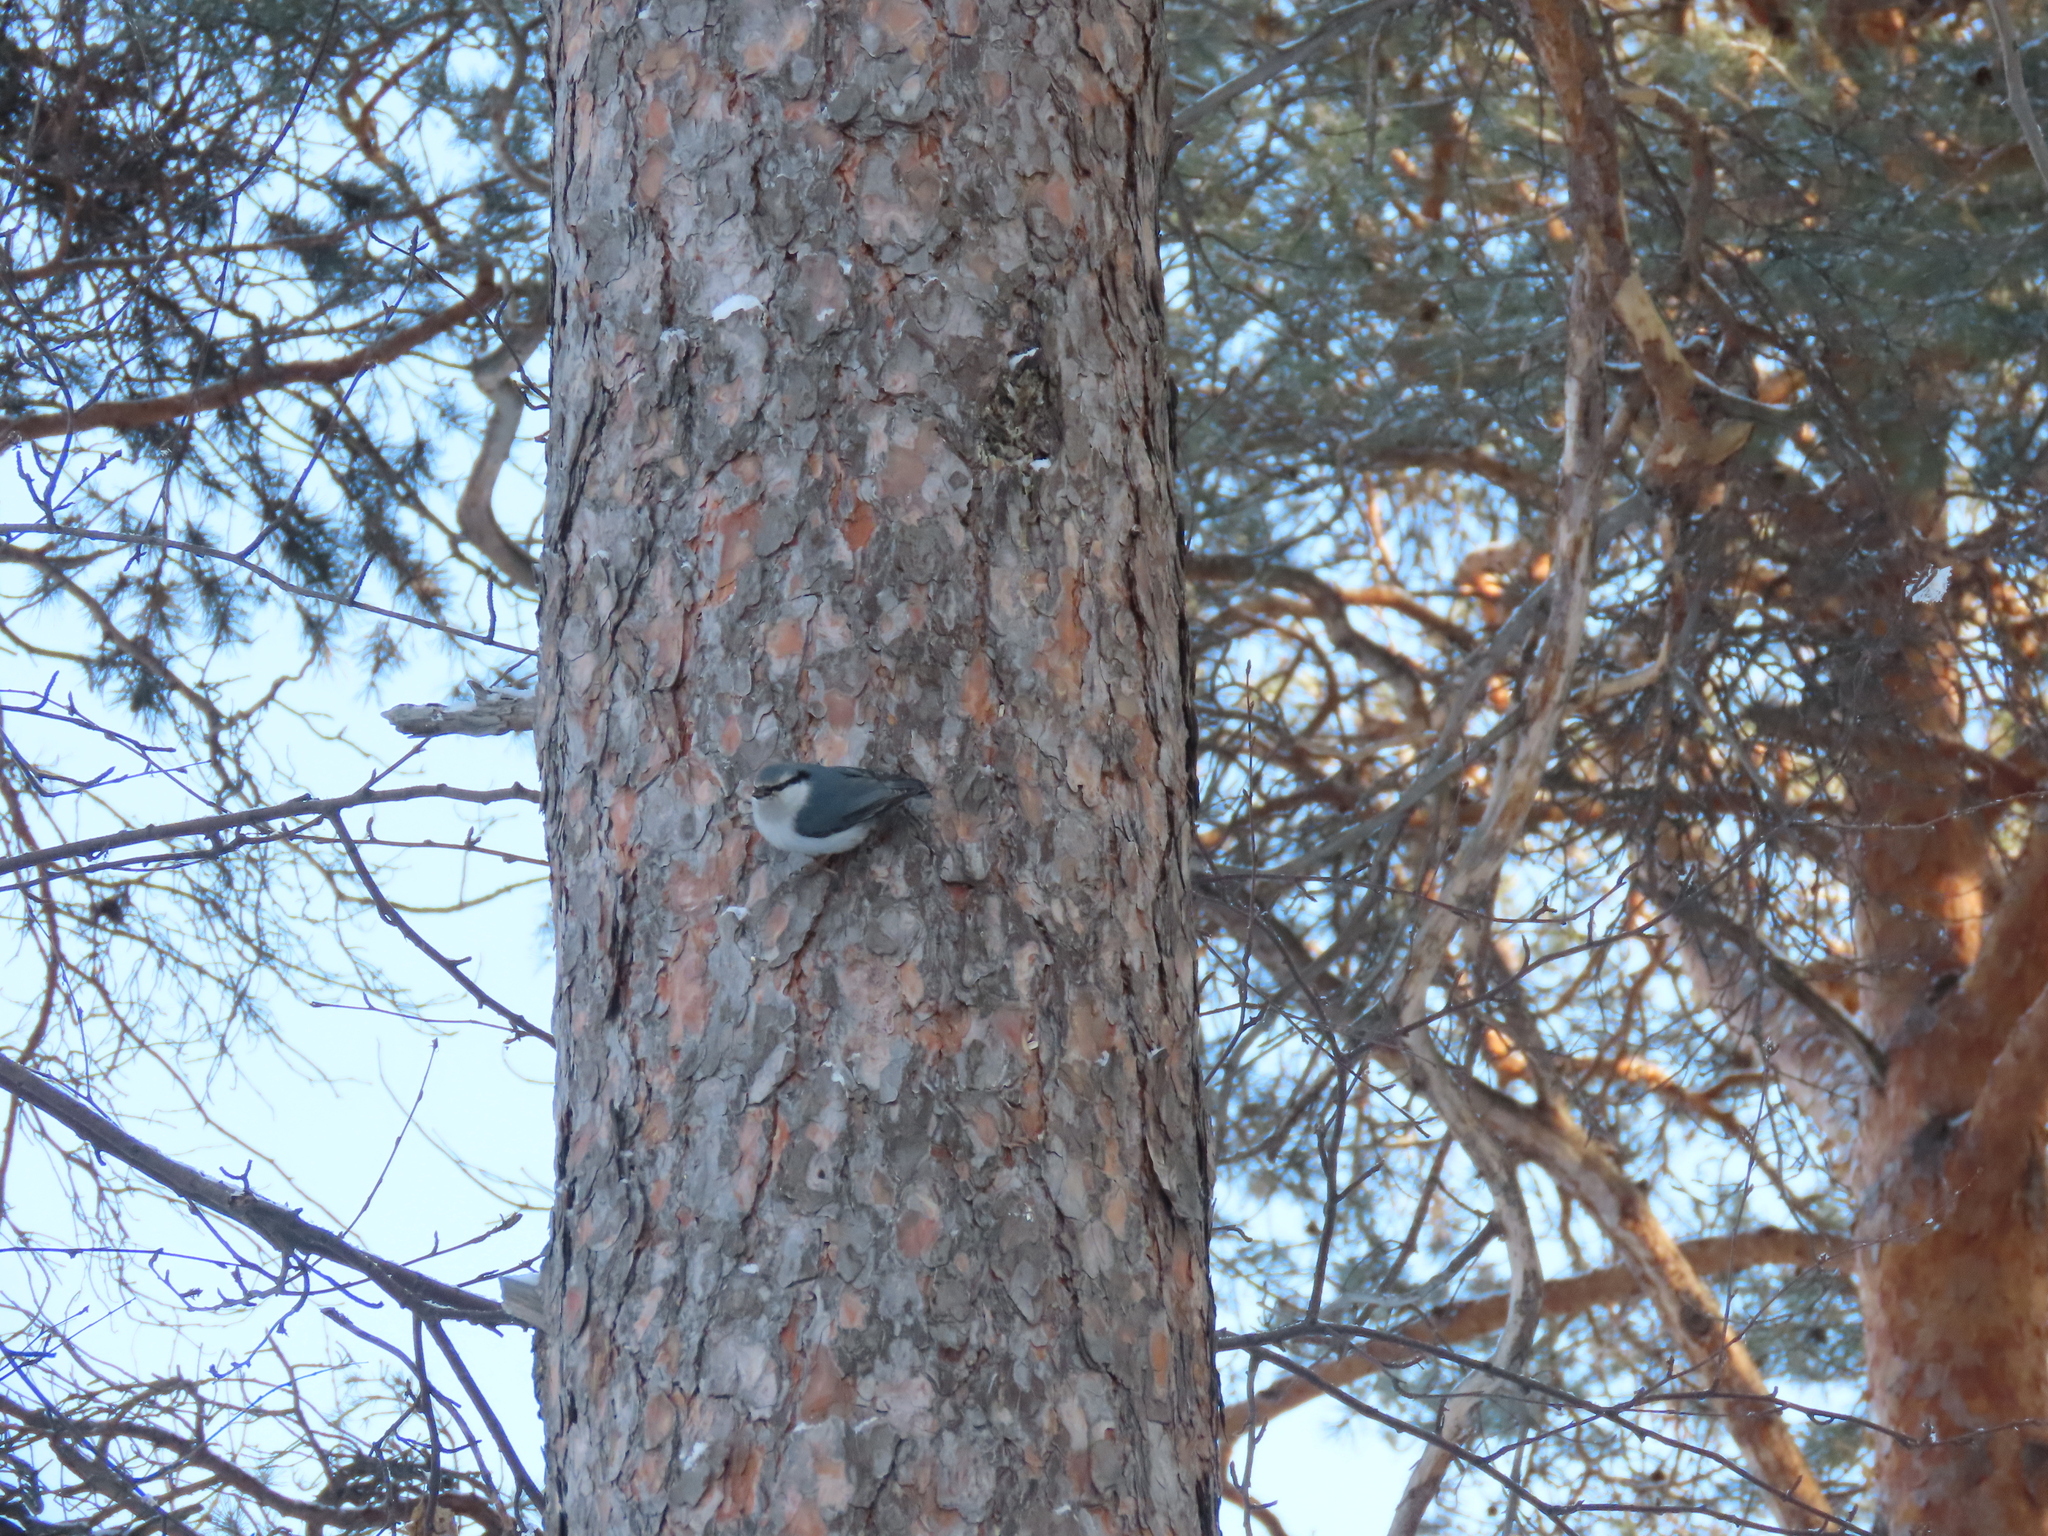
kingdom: Animalia
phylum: Chordata
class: Aves
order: Passeriformes
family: Sittidae
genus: Sitta
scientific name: Sitta europaea
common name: Eurasian nuthatch
